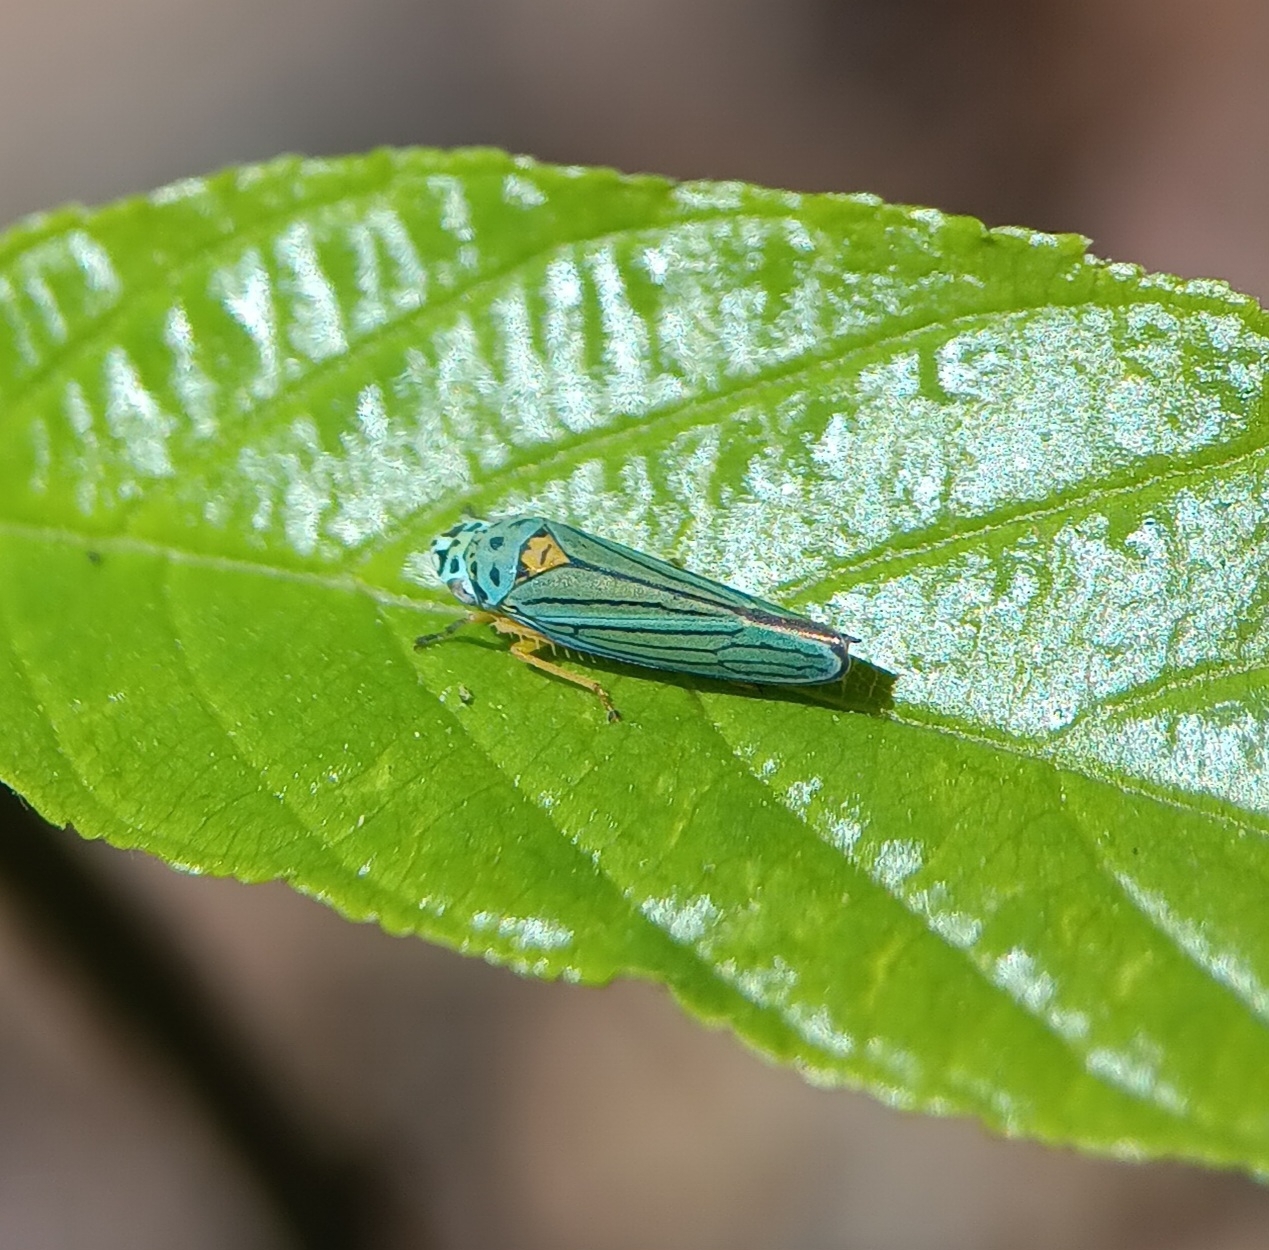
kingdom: Animalia
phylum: Arthropoda
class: Insecta
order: Hemiptera
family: Cicadellidae
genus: Graphocephala
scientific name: Graphocephala atropunctata
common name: Blue-green sharpshooter
